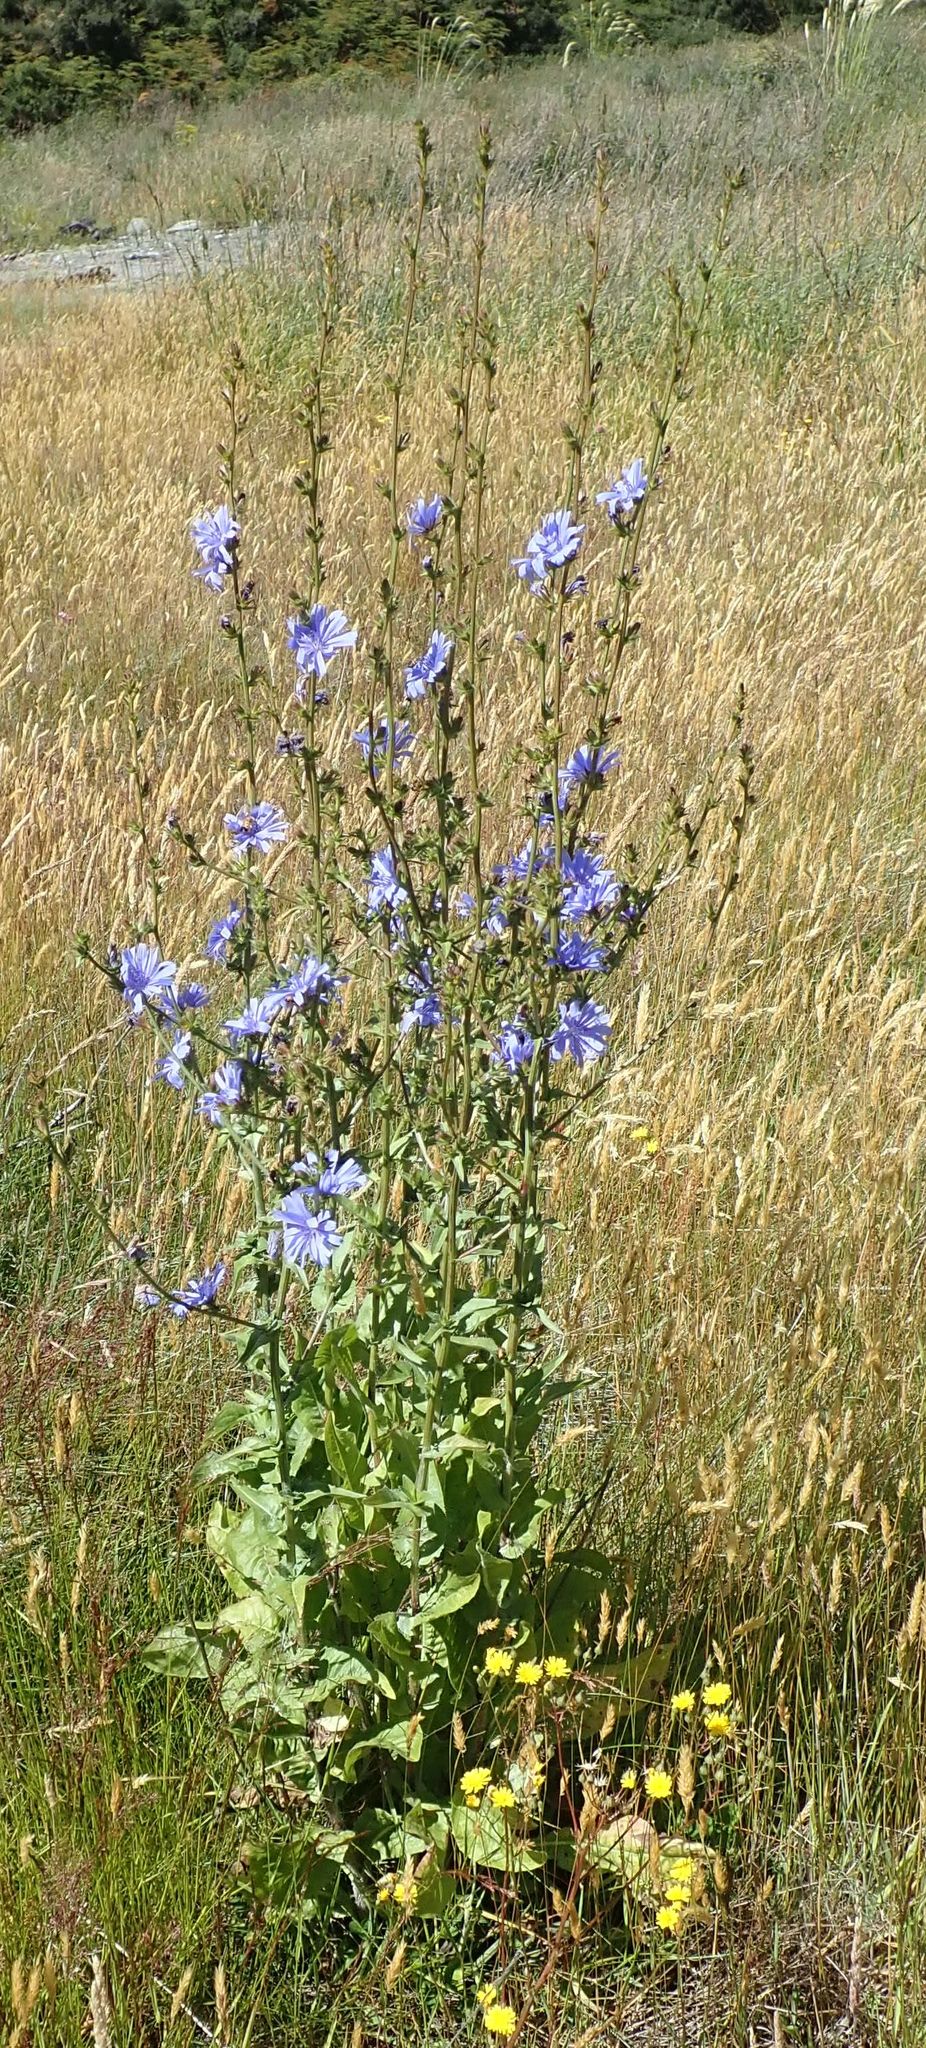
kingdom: Plantae
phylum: Tracheophyta
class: Magnoliopsida
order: Asterales
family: Asteraceae
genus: Cichorium
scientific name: Cichorium intybus
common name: Chicory
